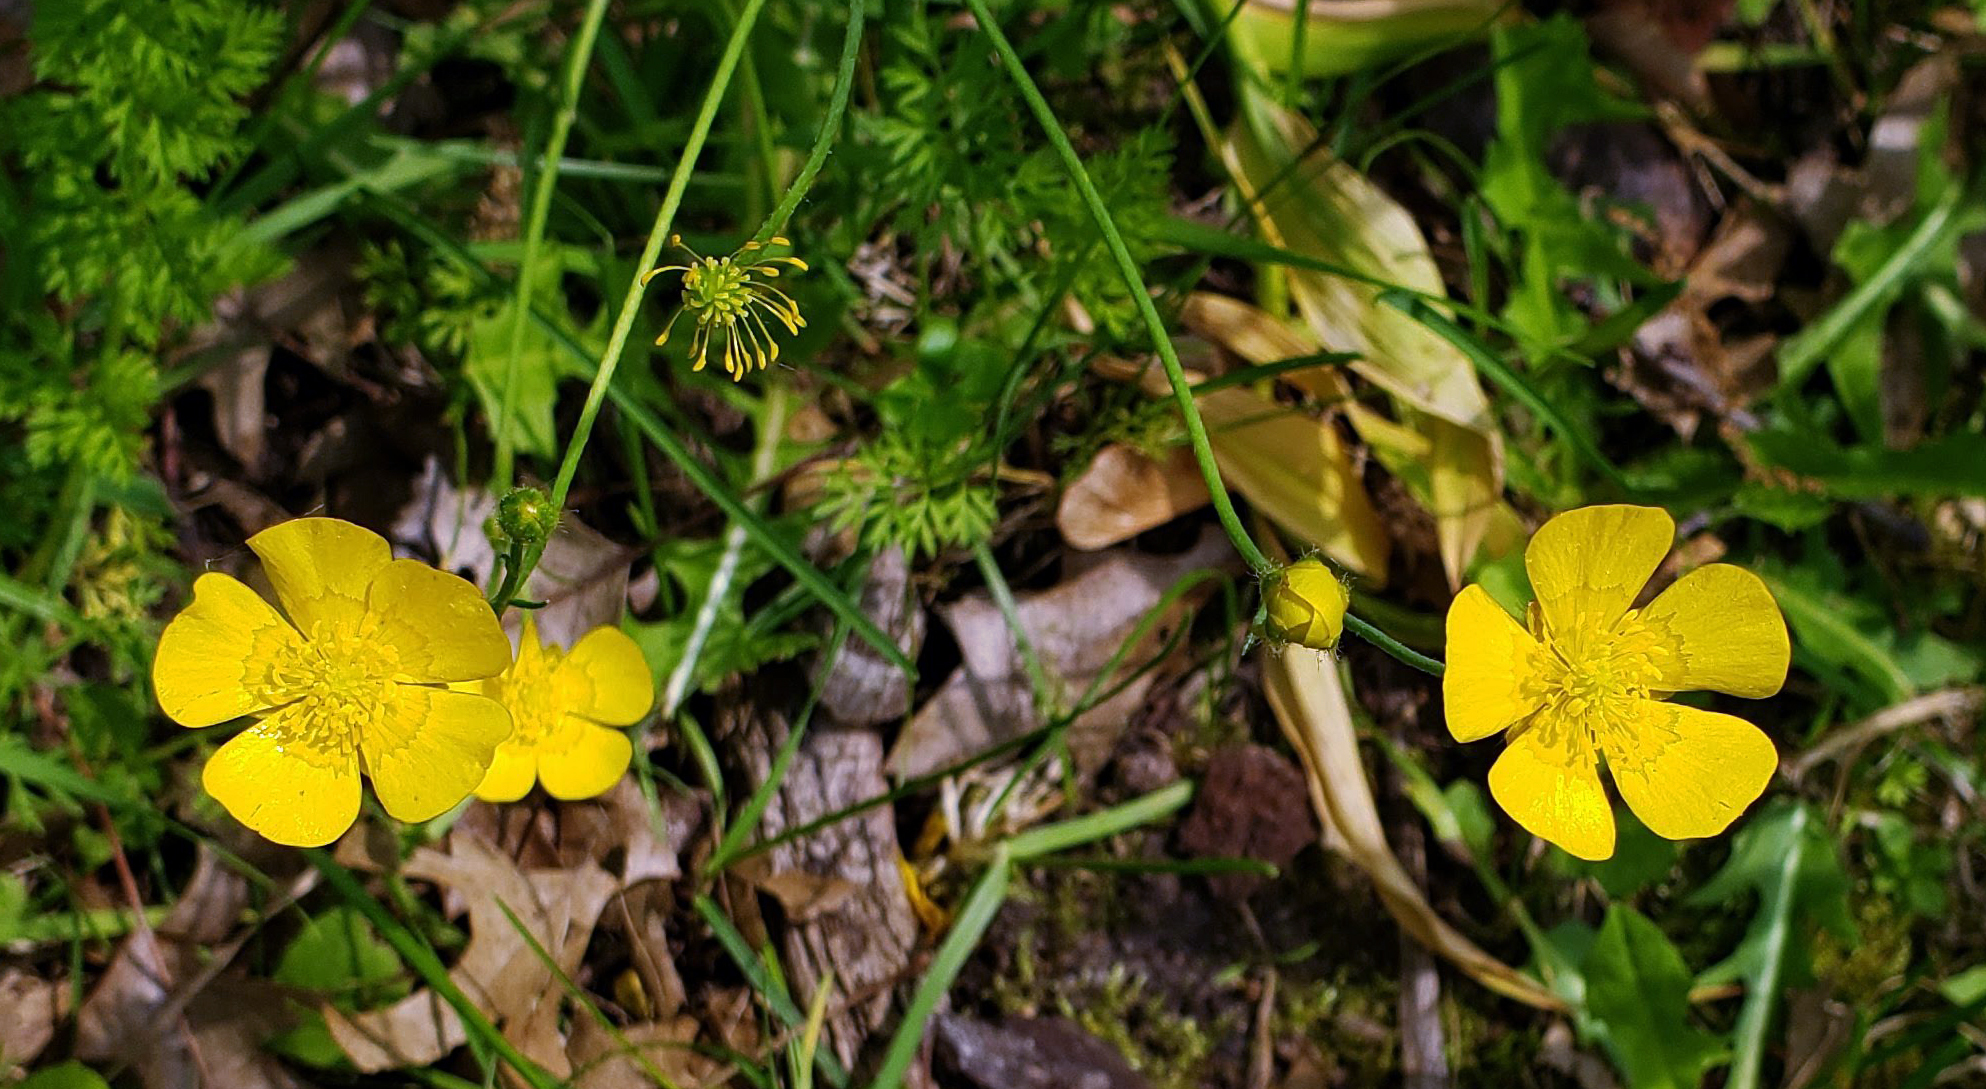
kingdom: Plantae
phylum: Tracheophyta
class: Magnoliopsida
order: Ranunculales
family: Ranunculaceae
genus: Ranunculus
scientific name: Ranunculus acris
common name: Meadow buttercup
